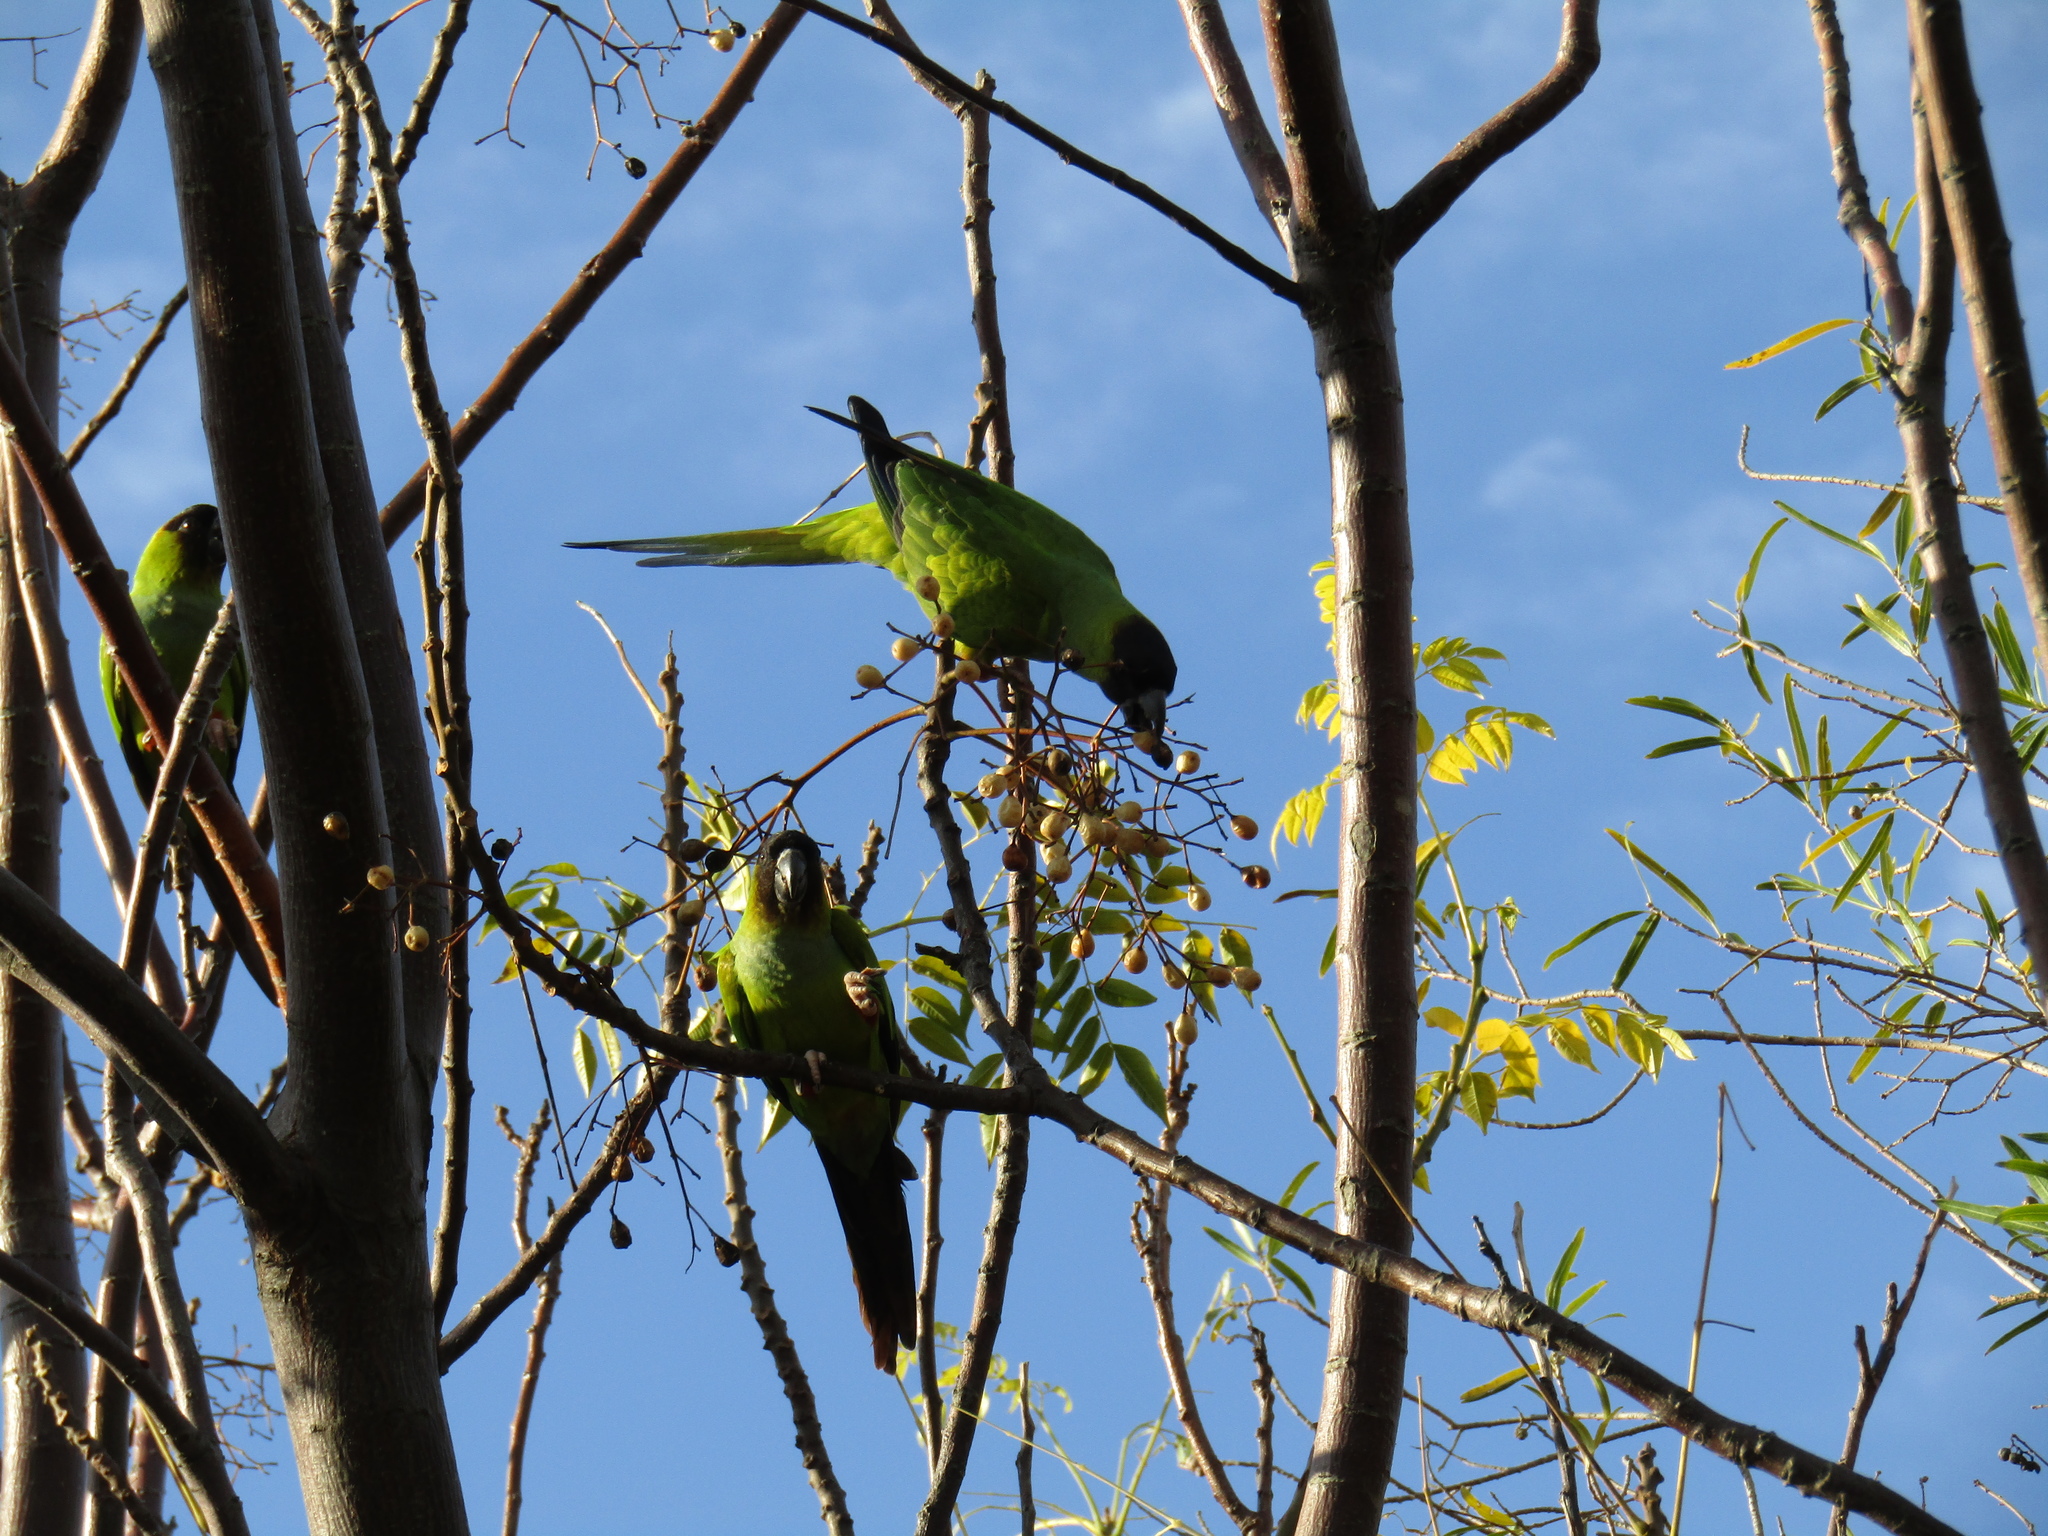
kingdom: Animalia
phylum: Chordata
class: Aves
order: Psittaciformes
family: Psittacidae
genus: Nandayus
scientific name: Nandayus nenday
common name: Nanday parakeet
